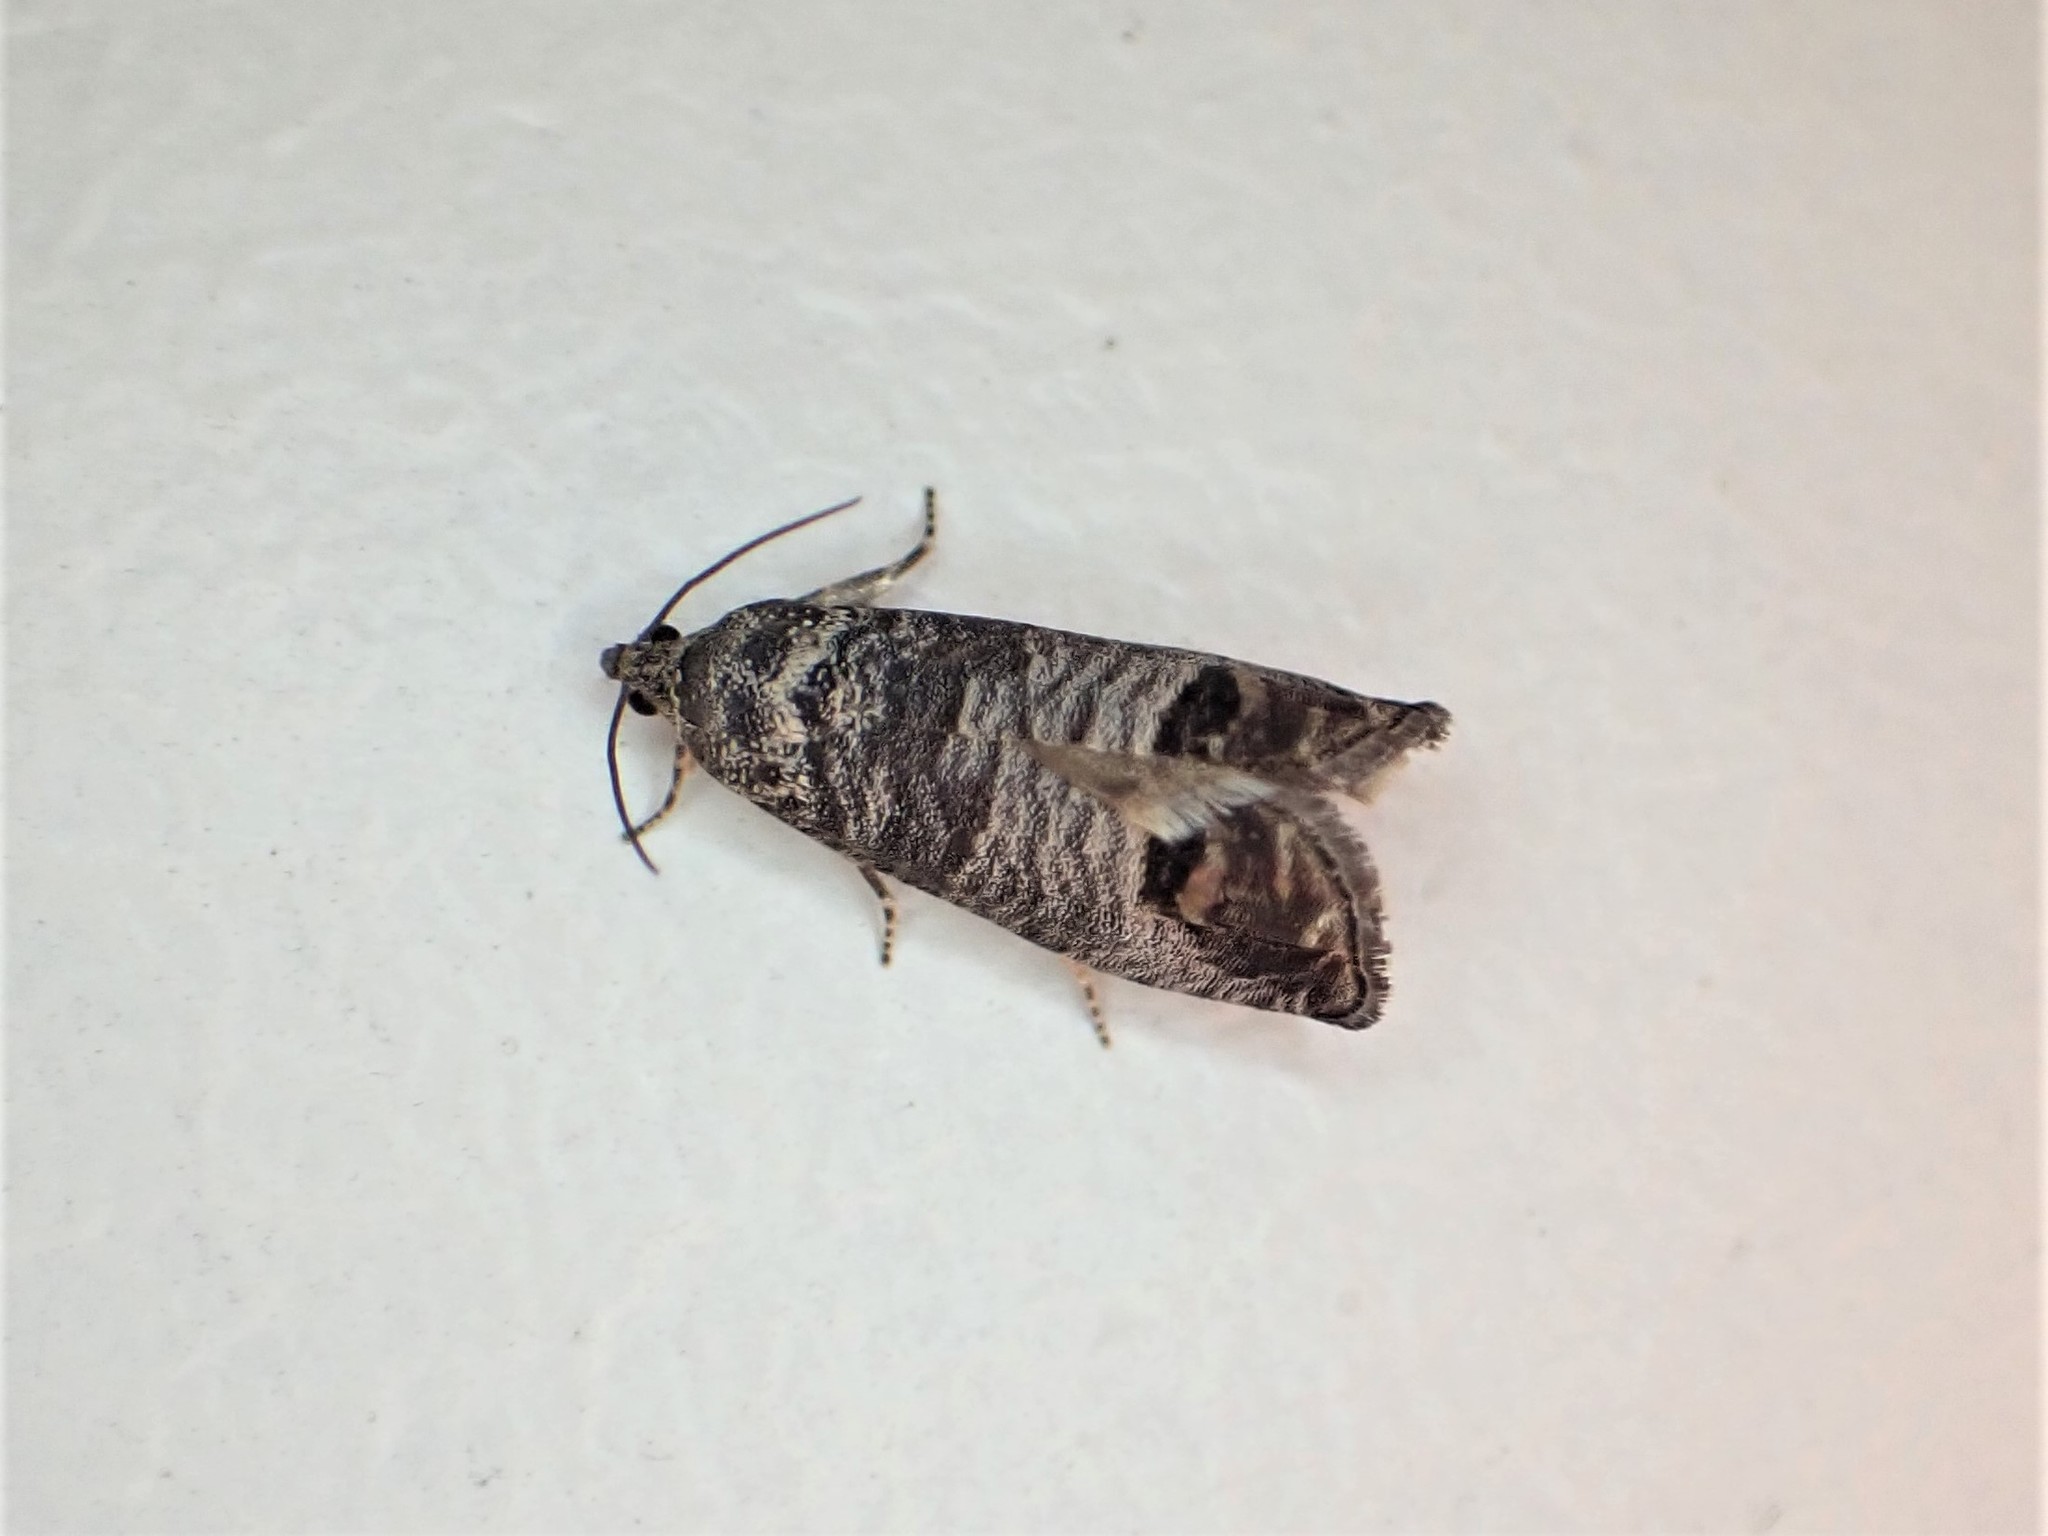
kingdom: Animalia
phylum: Arthropoda
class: Insecta
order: Lepidoptera
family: Tortricidae
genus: Cydia
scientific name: Cydia pomonella
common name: Codling moth
